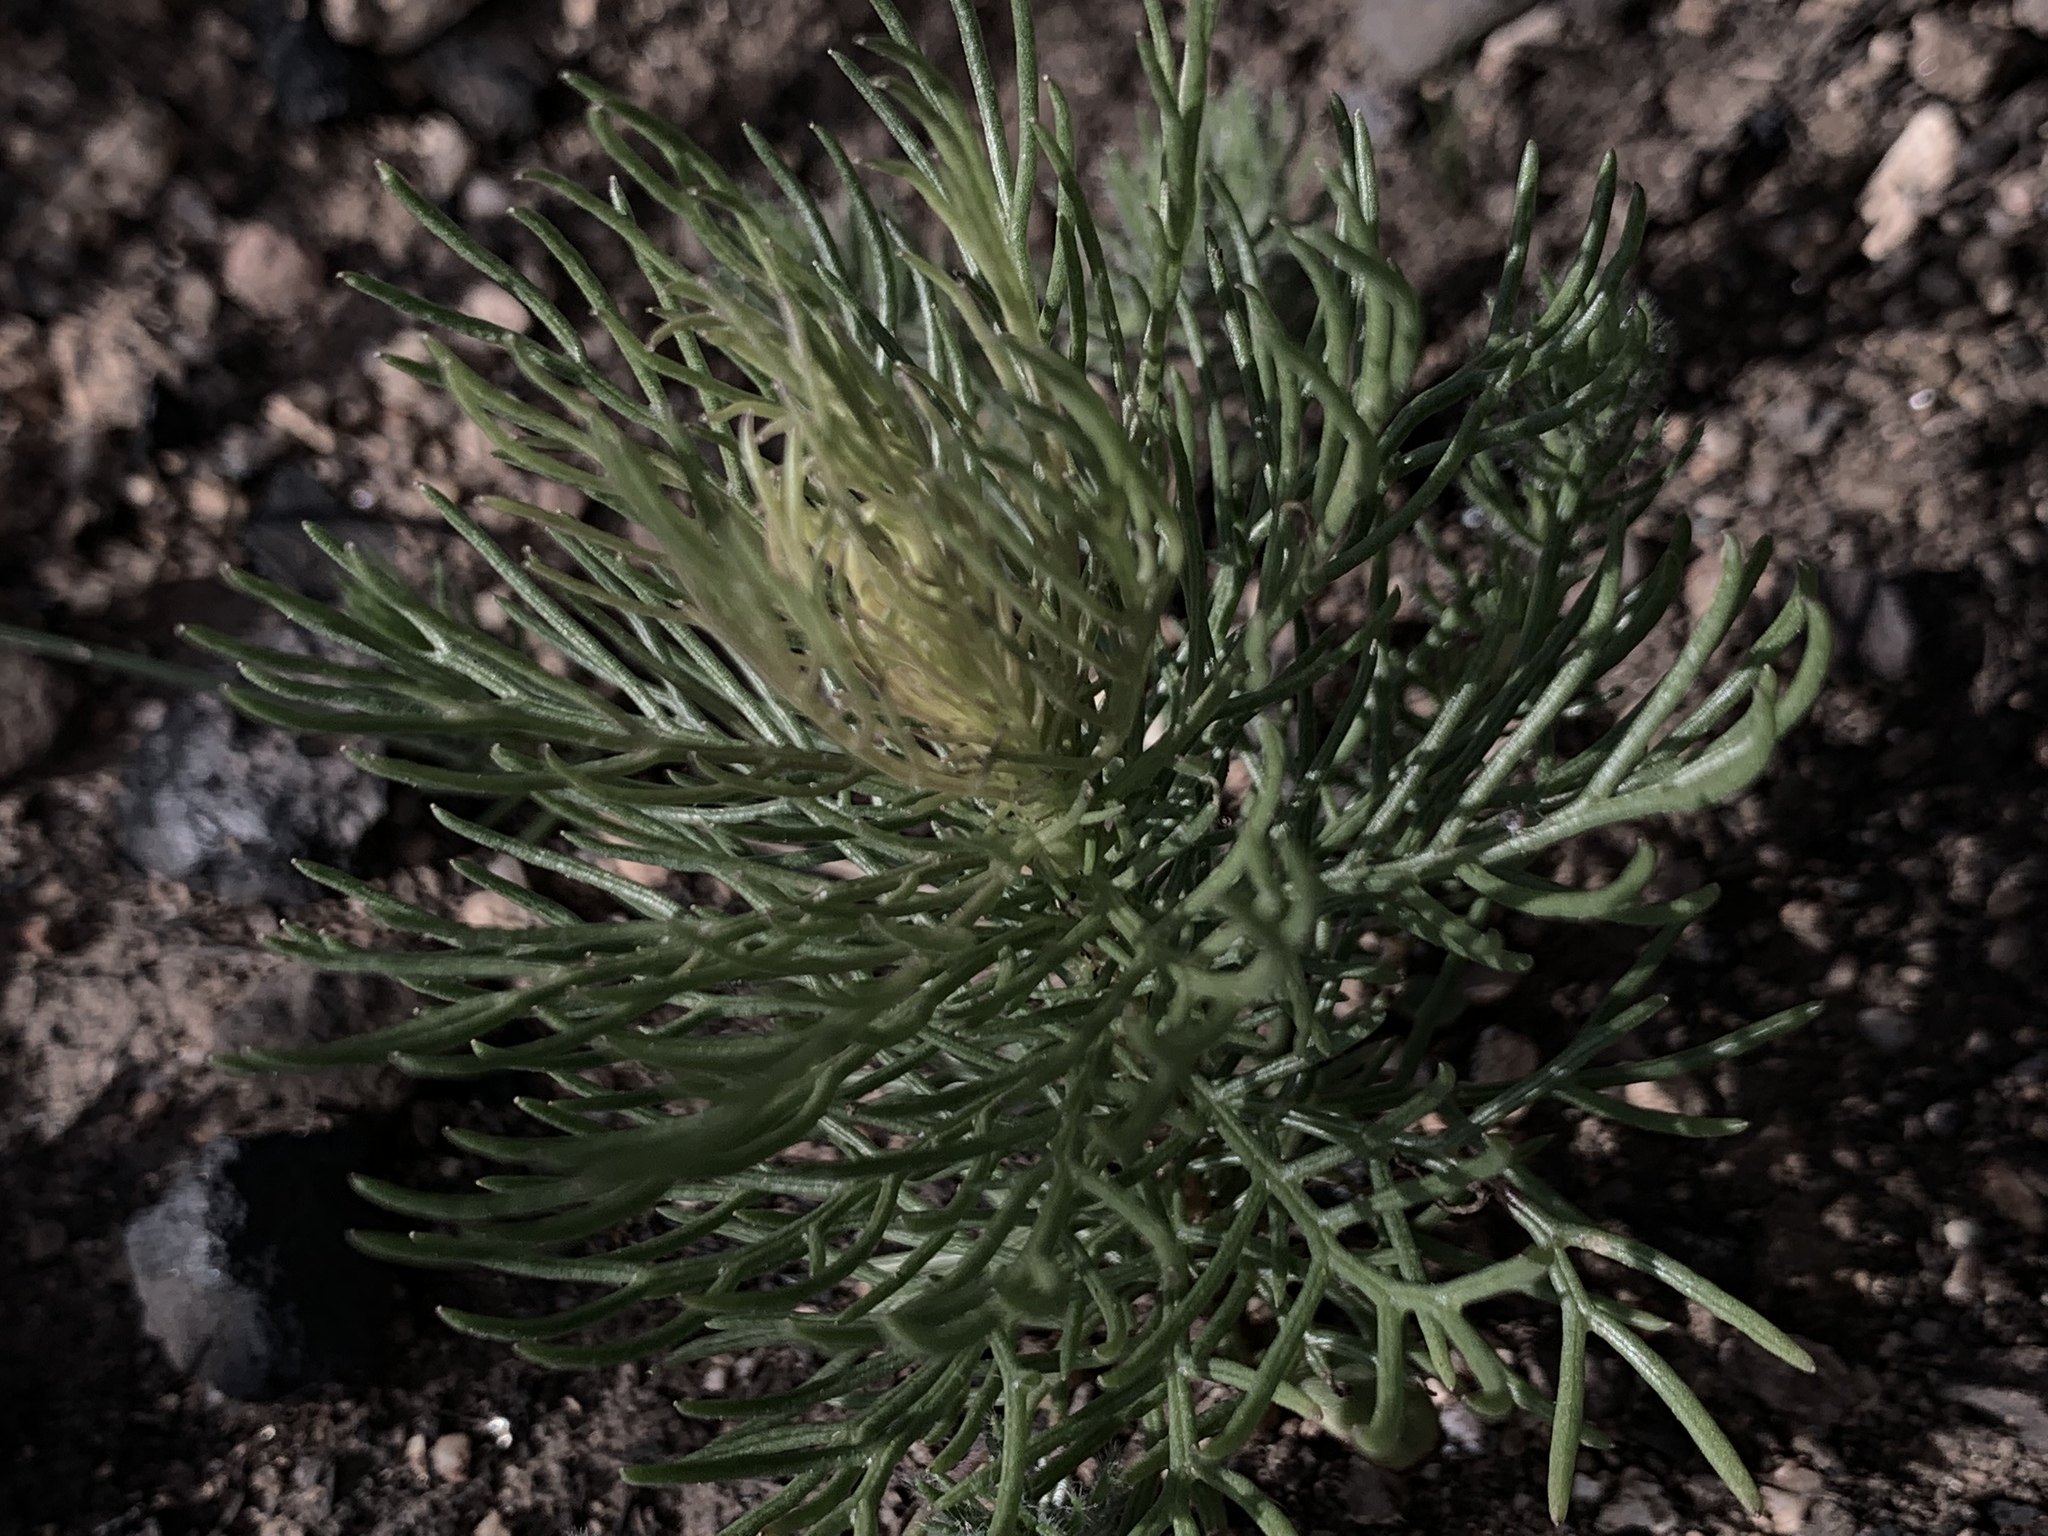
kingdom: Plantae
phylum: Tracheophyta
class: Magnoliopsida
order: Asterales
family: Asteraceae
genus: Hymenolepis
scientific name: Hymenolepis crithmifolia
